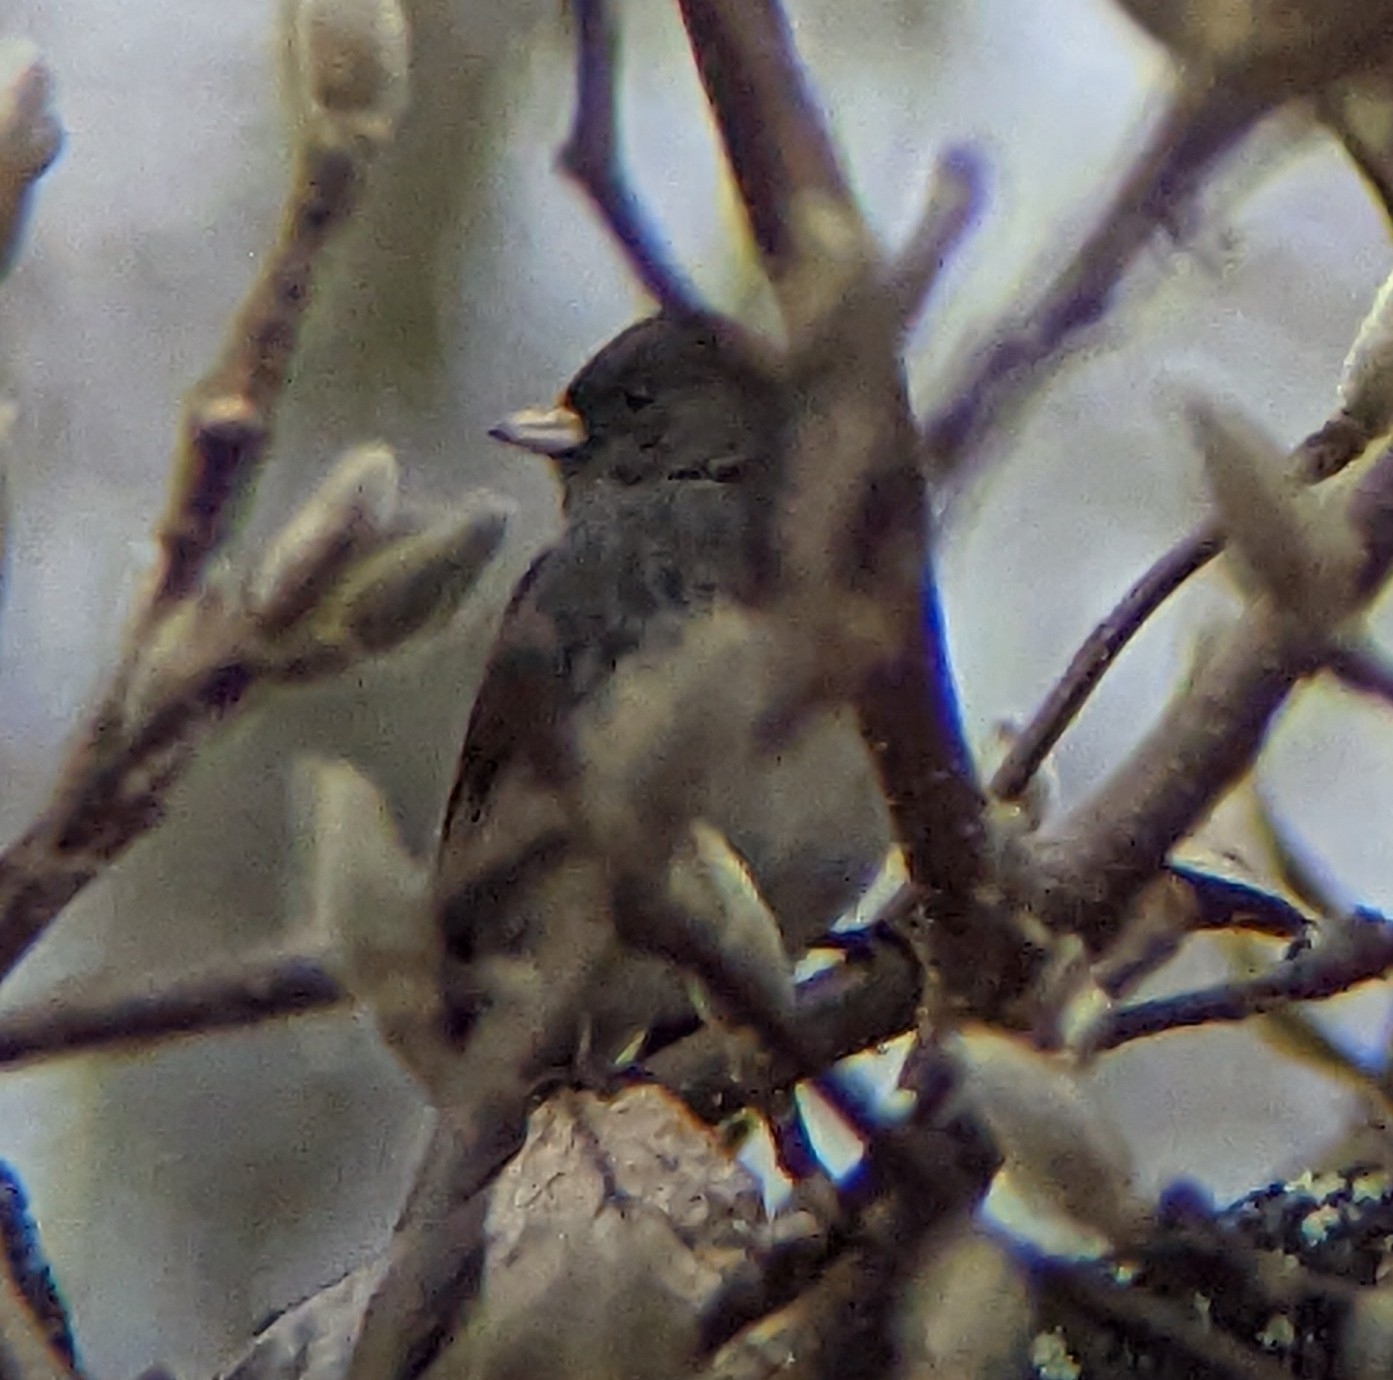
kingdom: Animalia
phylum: Chordata
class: Aves
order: Passeriformes
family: Passerellidae
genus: Junco
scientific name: Junco hyemalis
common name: Dark-eyed junco
